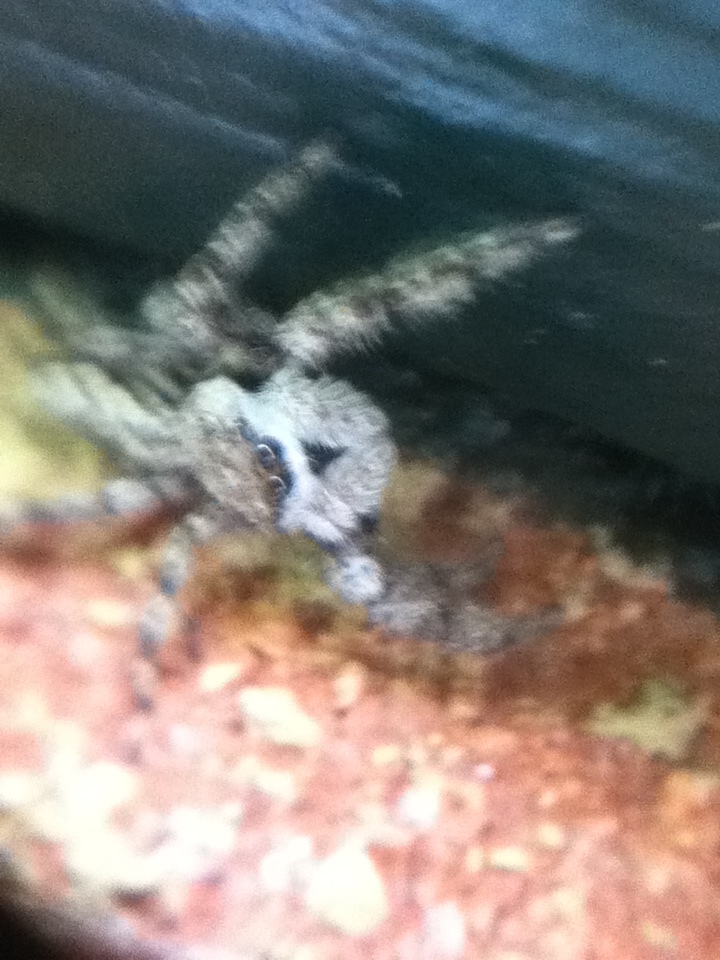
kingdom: Animalia
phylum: Arthropoda
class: Arachnida
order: Araneae
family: Salticidae
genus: Platycryptus
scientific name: Platycryptus undatus
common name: Tan jumping spider
